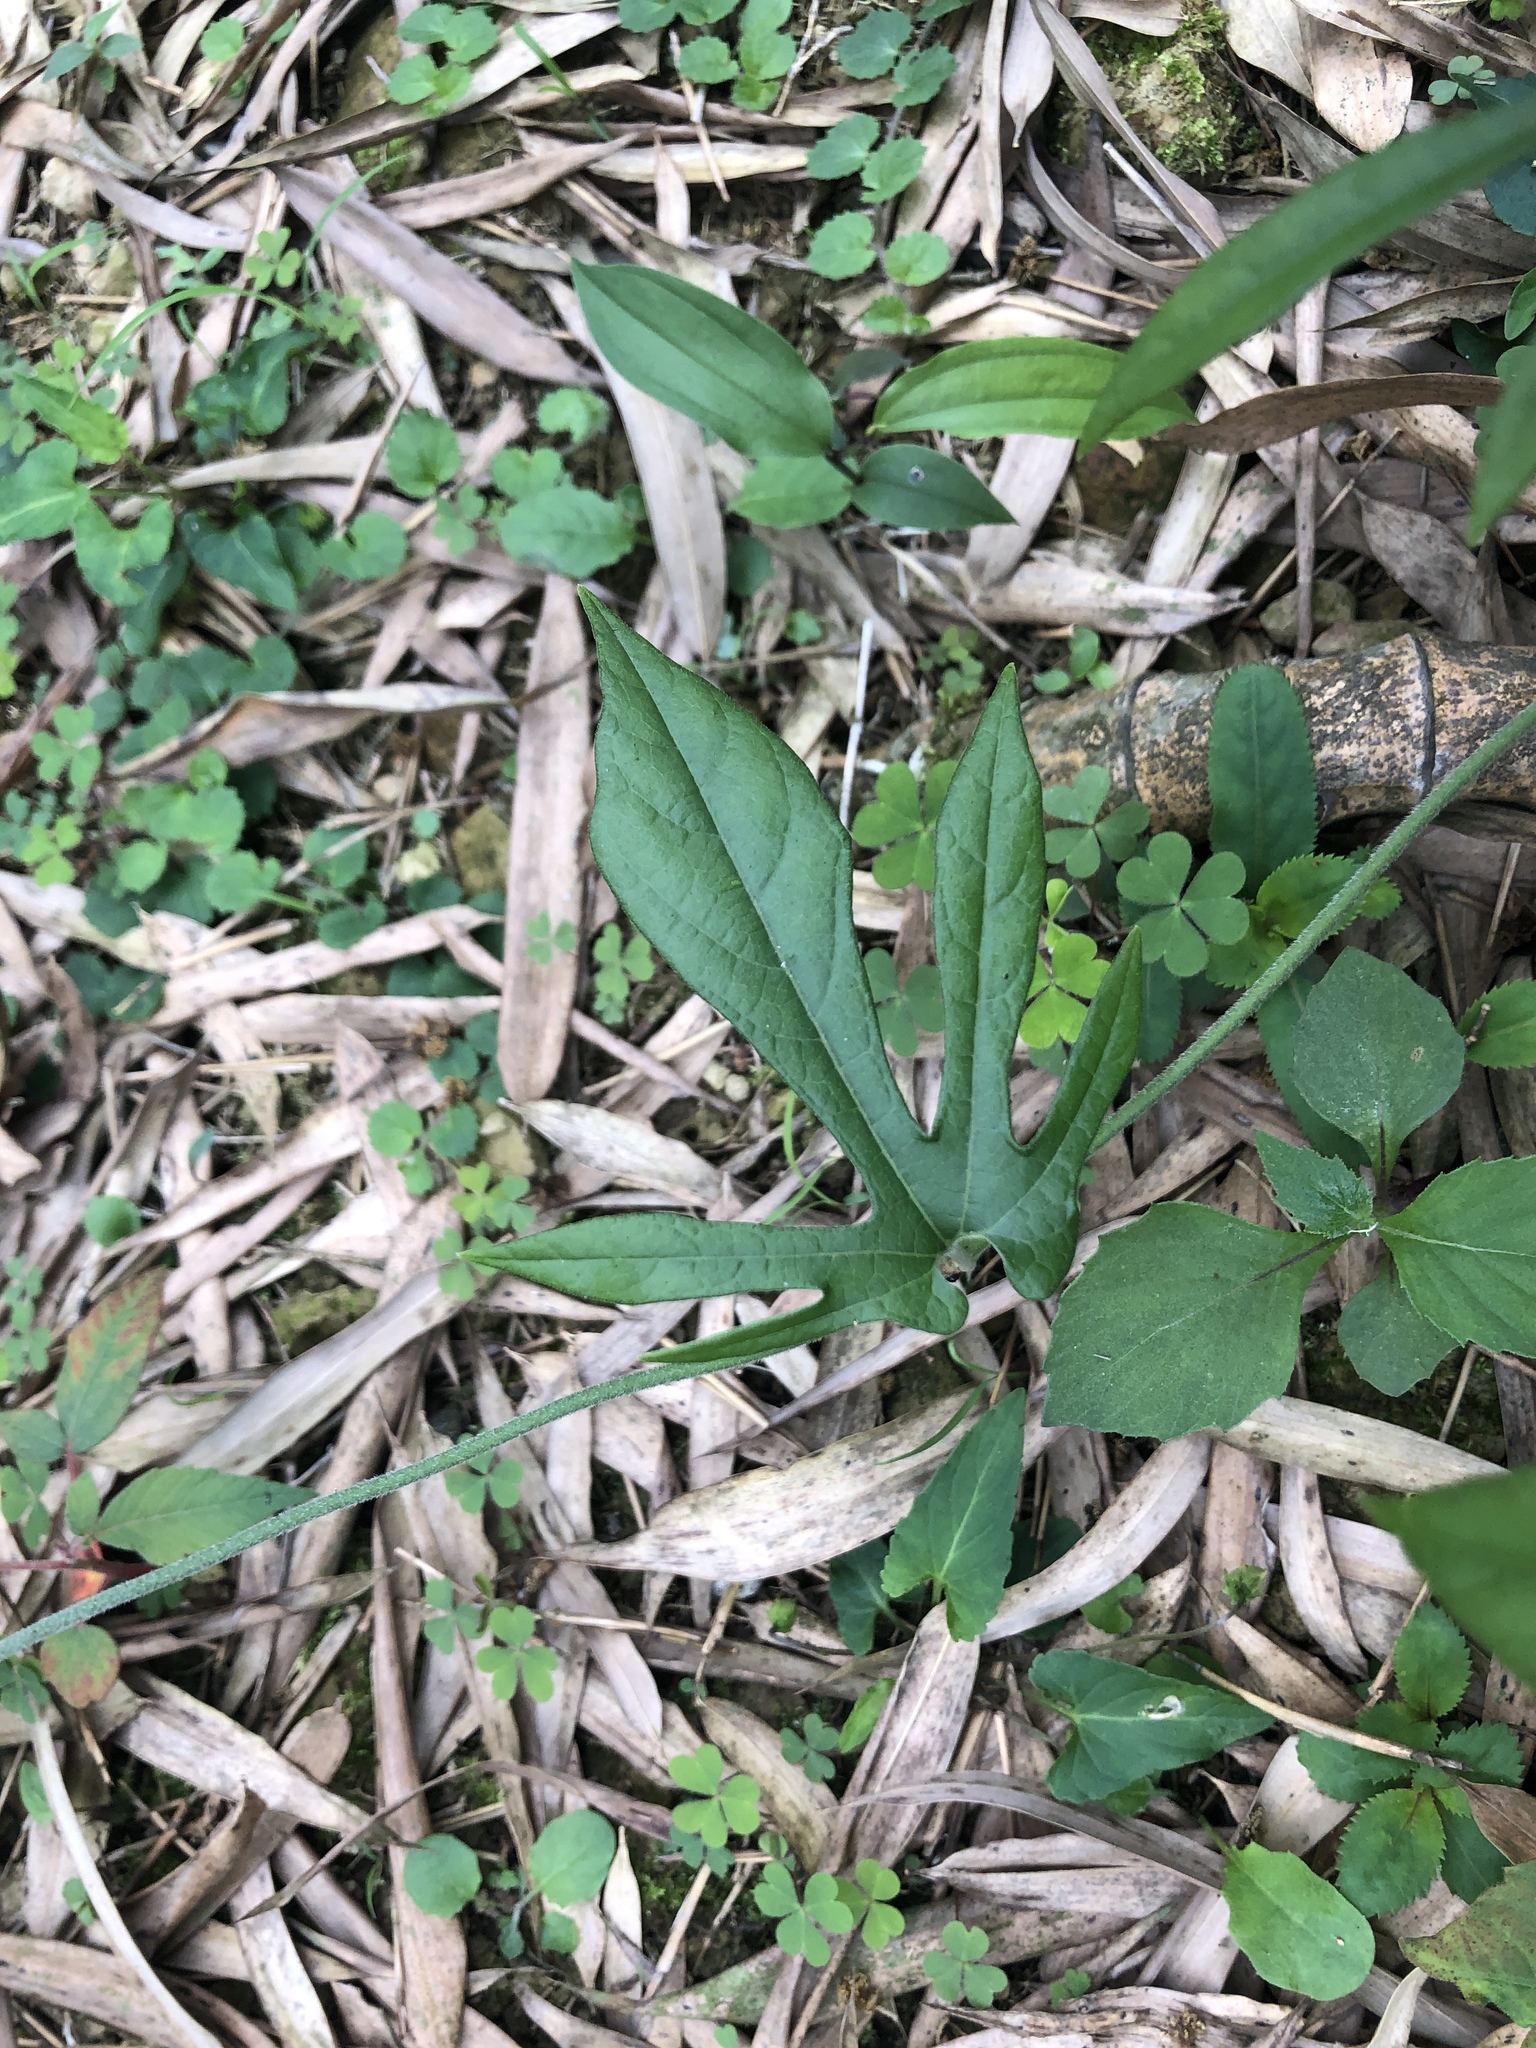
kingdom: Plantae
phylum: Tracheophyta
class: Magnoliopsida
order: Piperales
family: Aristolochiaceae
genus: Isotrema
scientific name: Isotrema cucurbitifolium
